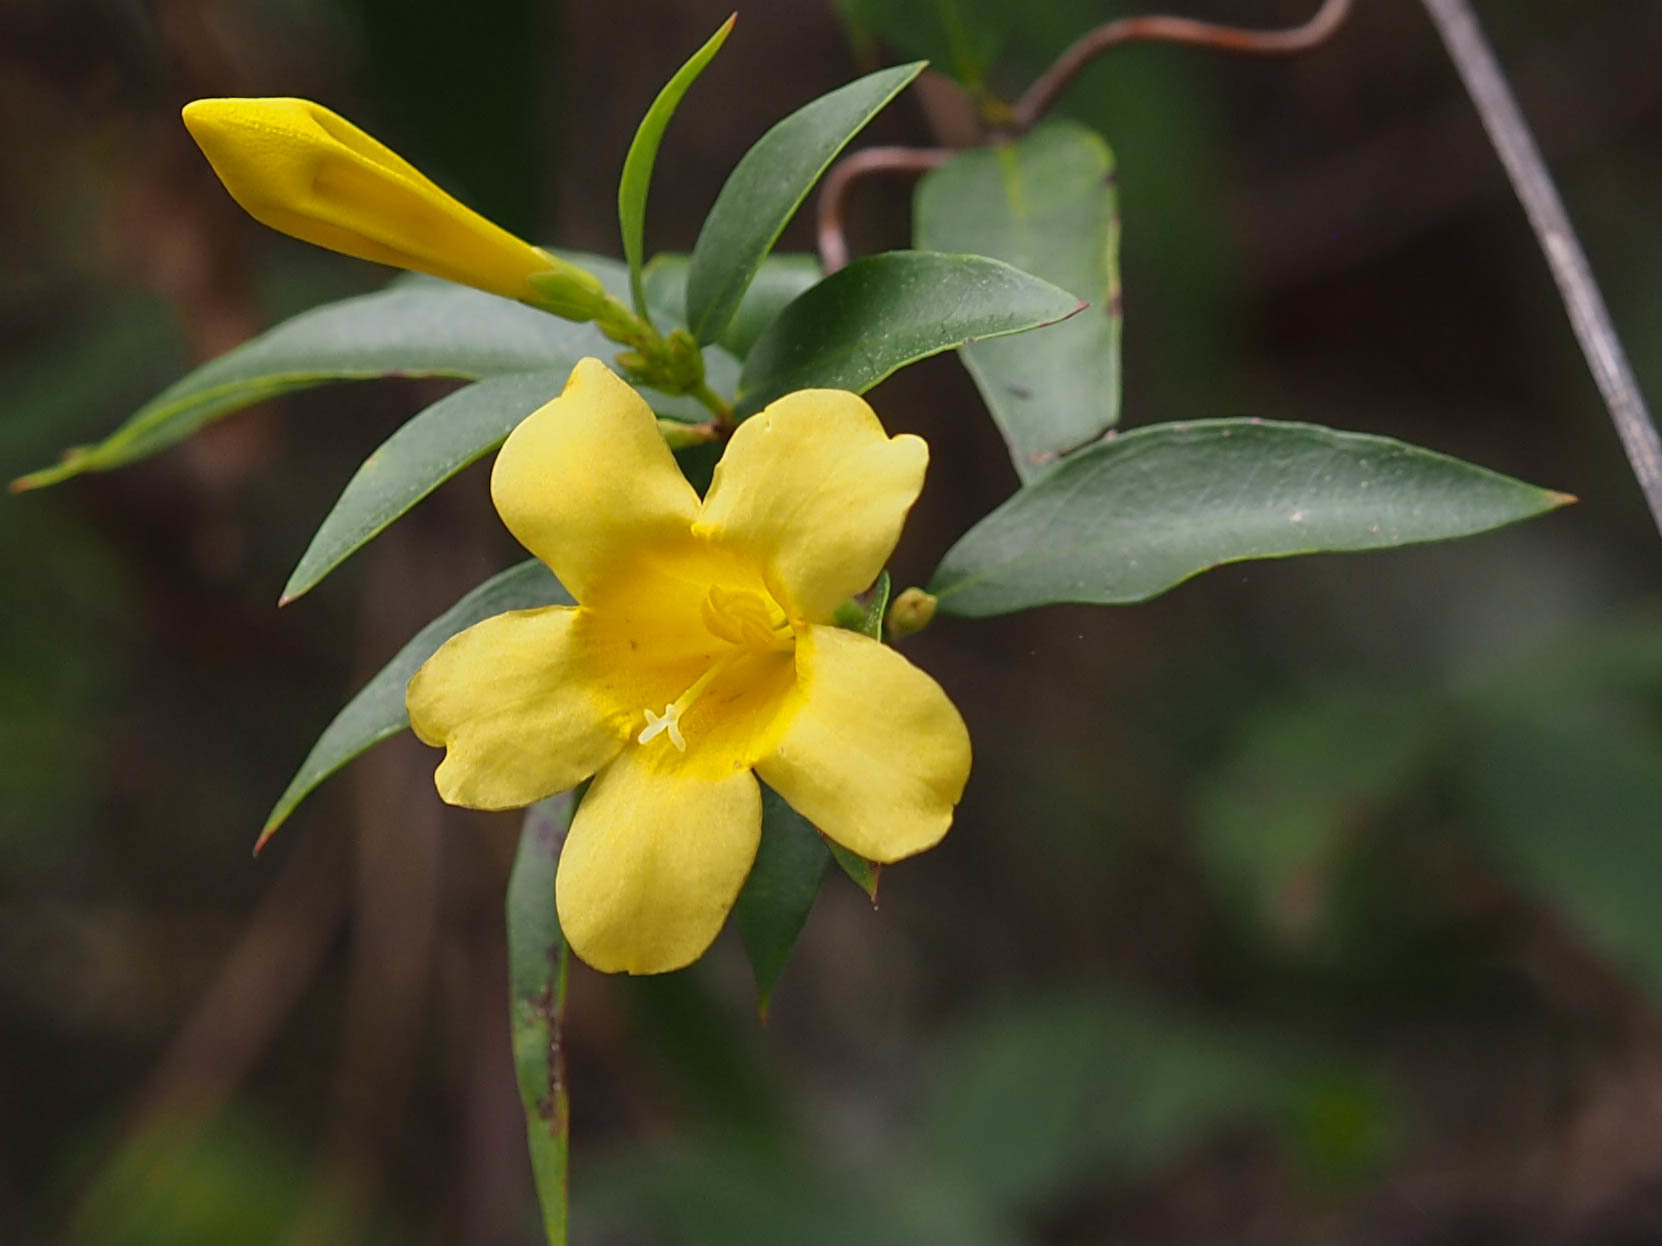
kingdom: Plantae
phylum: Tracheophyta
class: Magnoliopsida
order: Gentianales
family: Gelsemiaceae
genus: Gelsemium
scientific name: Gelsemium sempervirens
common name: Carolina-jasmine
